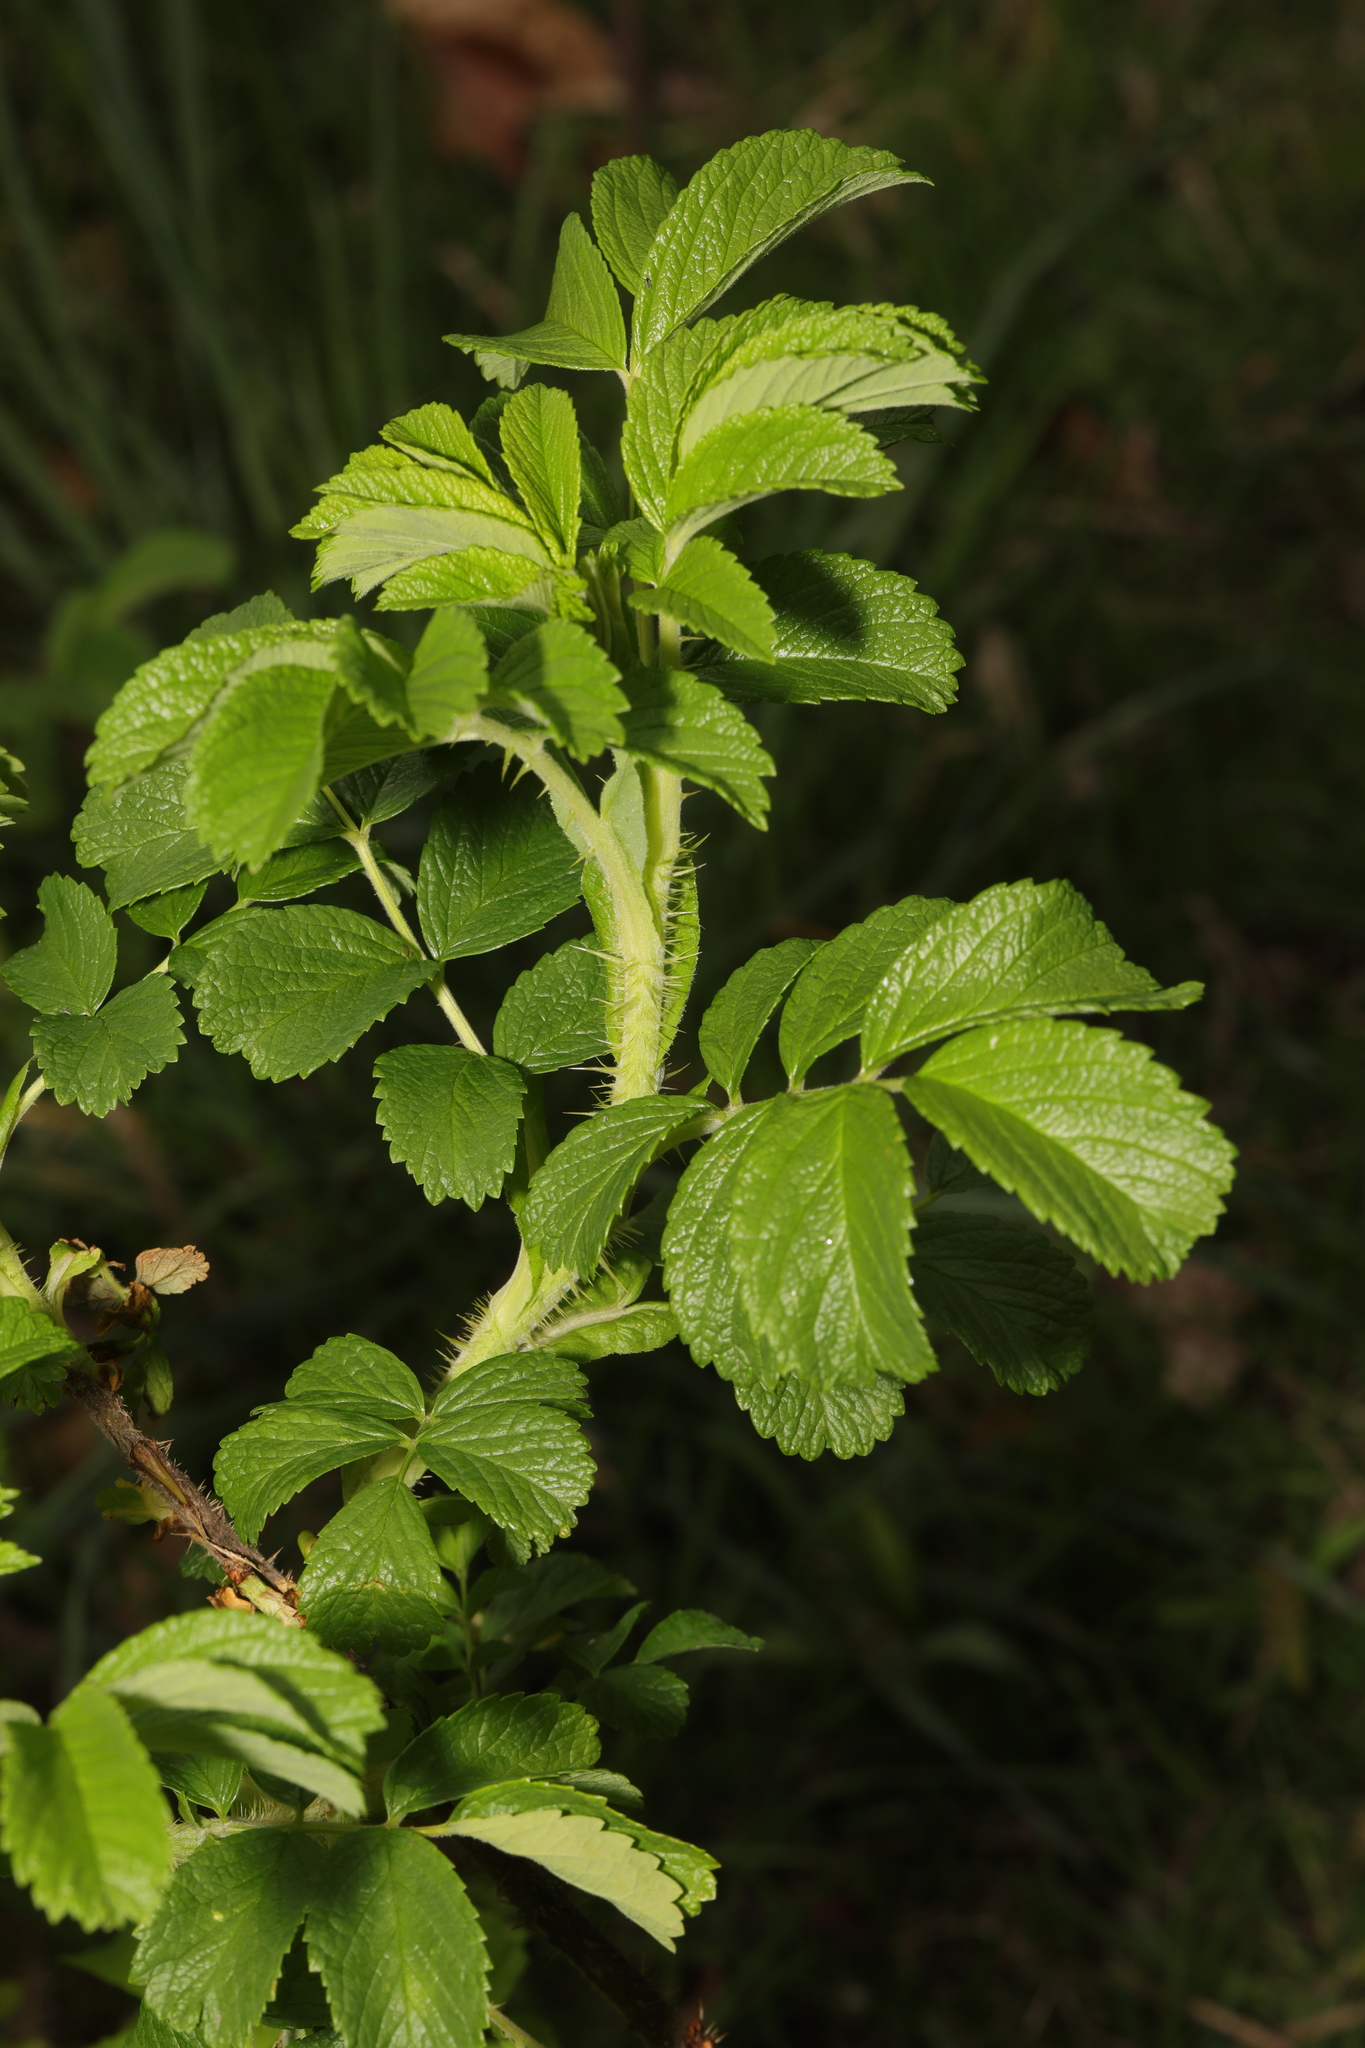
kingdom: Plantae
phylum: Tracheophyta
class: Magnoliopsida
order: Rosales
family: Rosaceae
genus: Rosa
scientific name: Rosa rugosa
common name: Japanese rose
